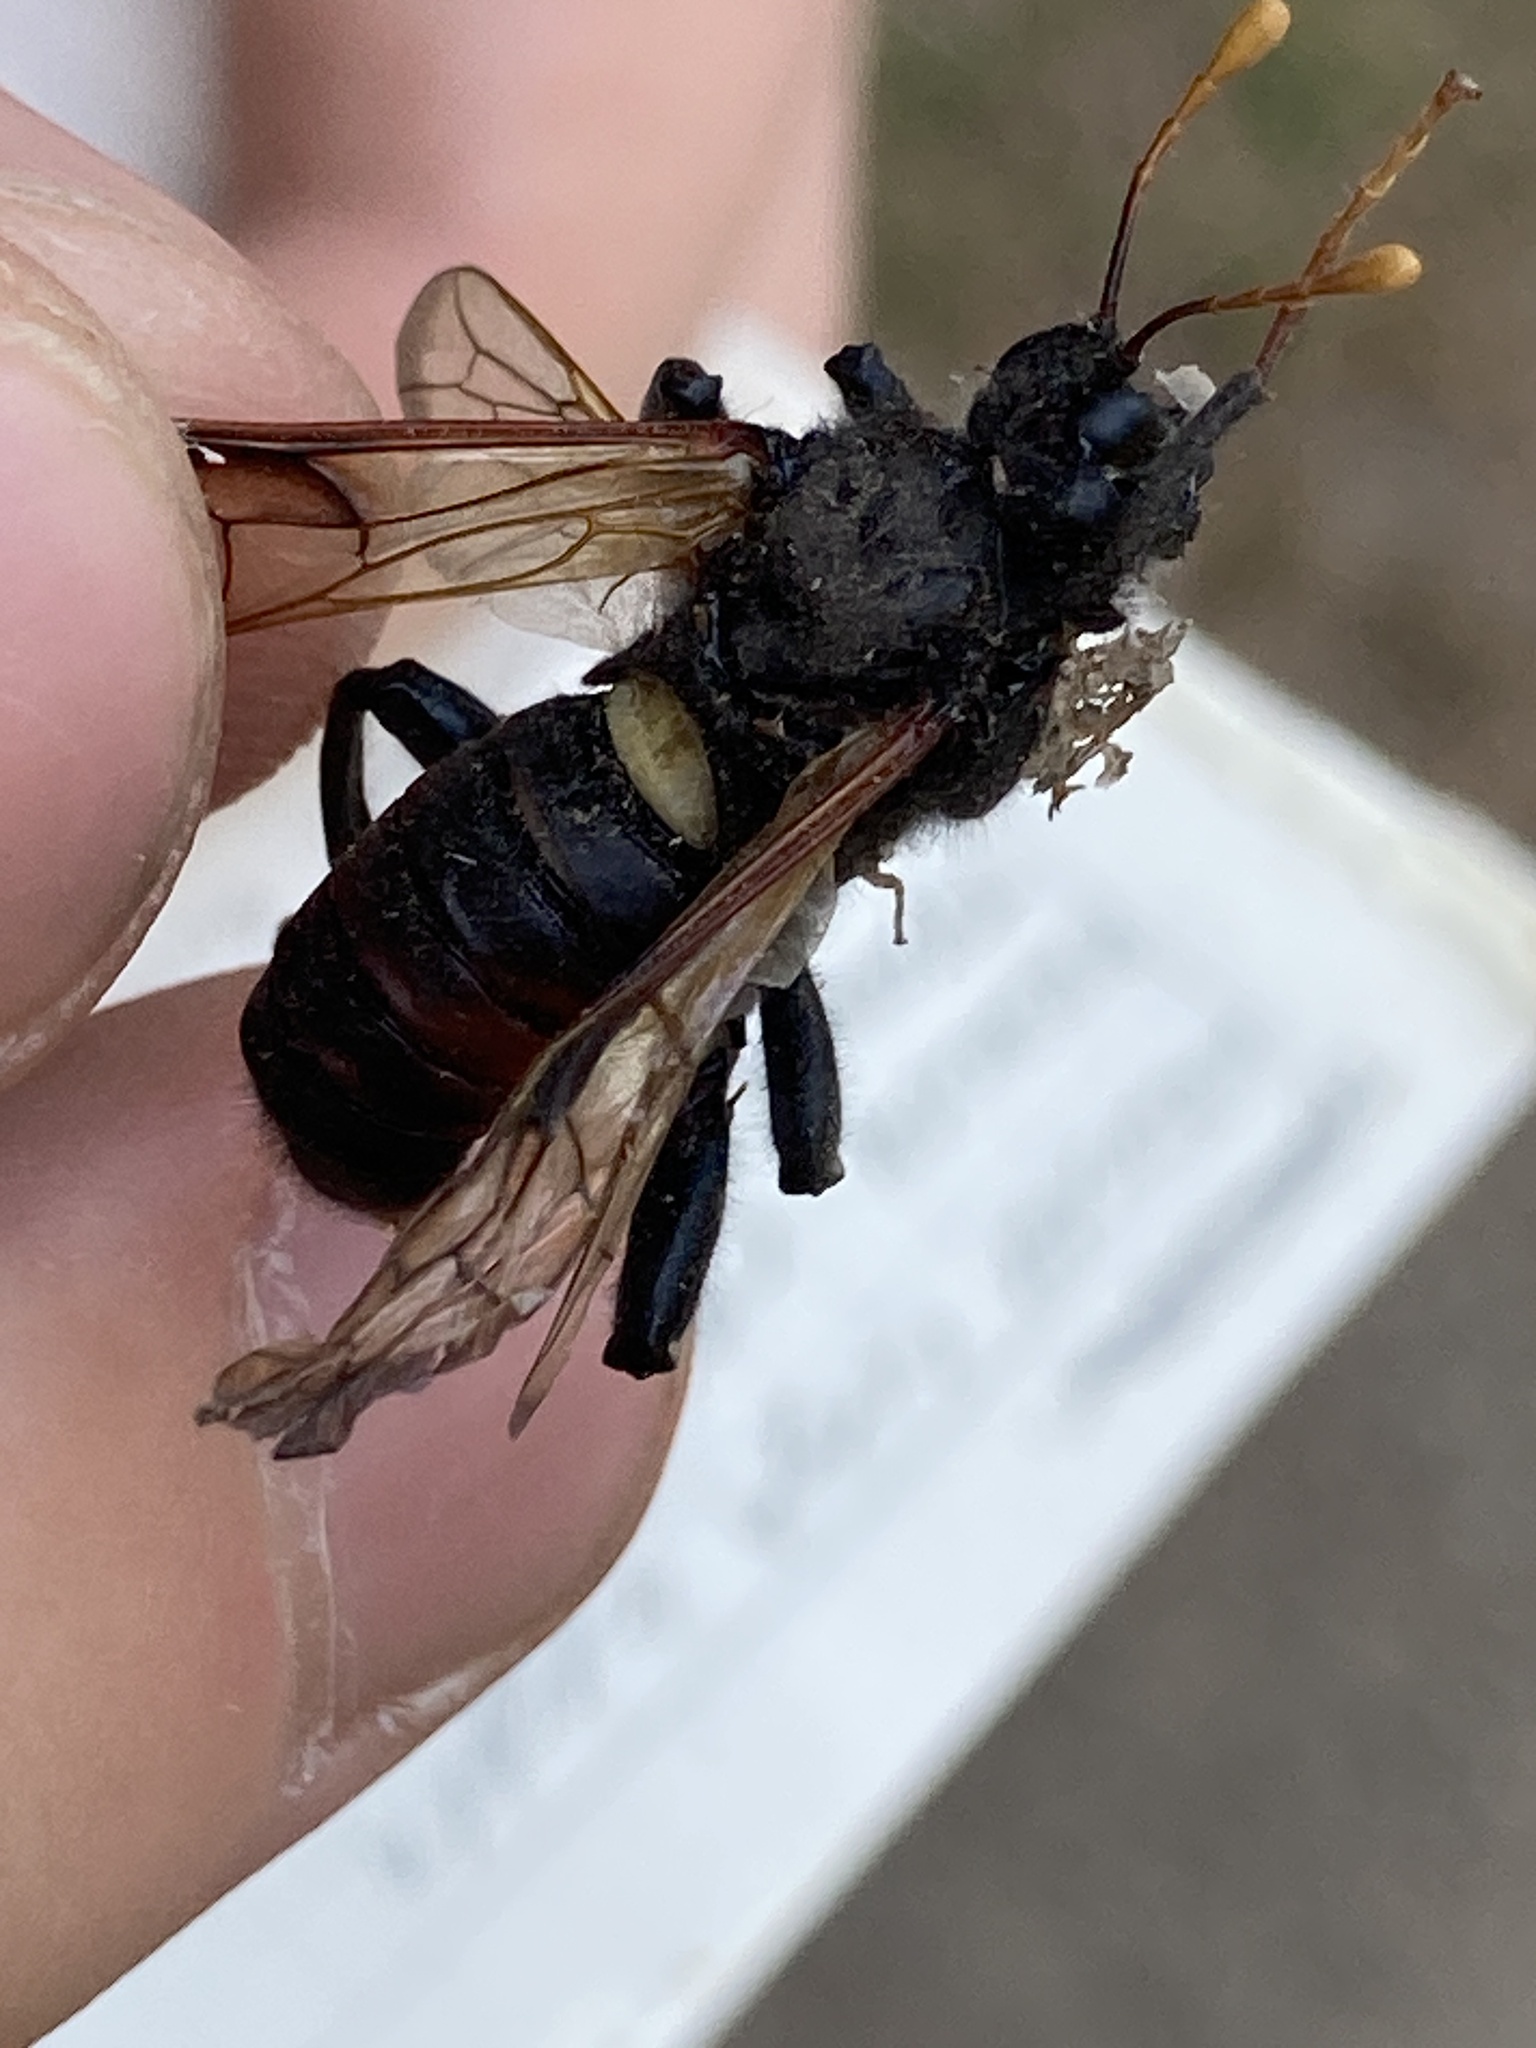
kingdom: Animalia
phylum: Arthropoda
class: Insecta
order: Hymenoptera
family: Cimbicidae
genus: Cimbex
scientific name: Cimbex femoratus
